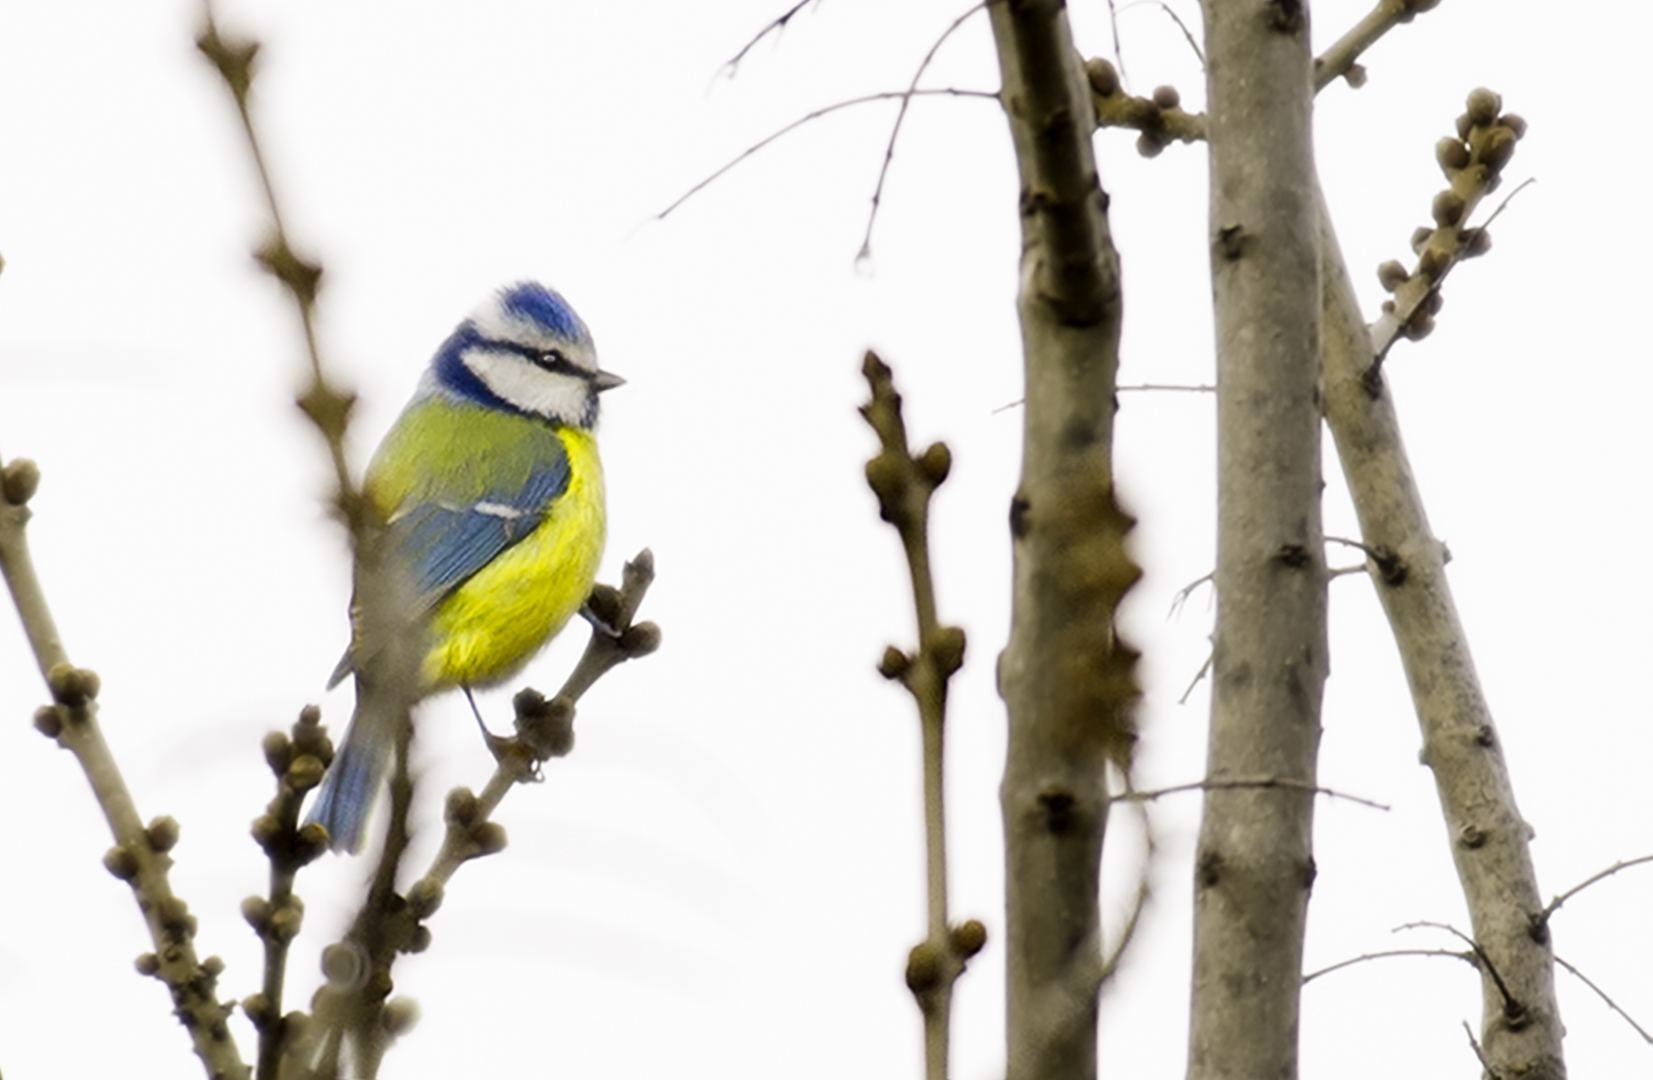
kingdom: Animalia
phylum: Chordata
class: Aves
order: Passeriformes
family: Paridae
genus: Cyanistes
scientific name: Cyanistes caeruleus
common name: Eurasian blue tit
